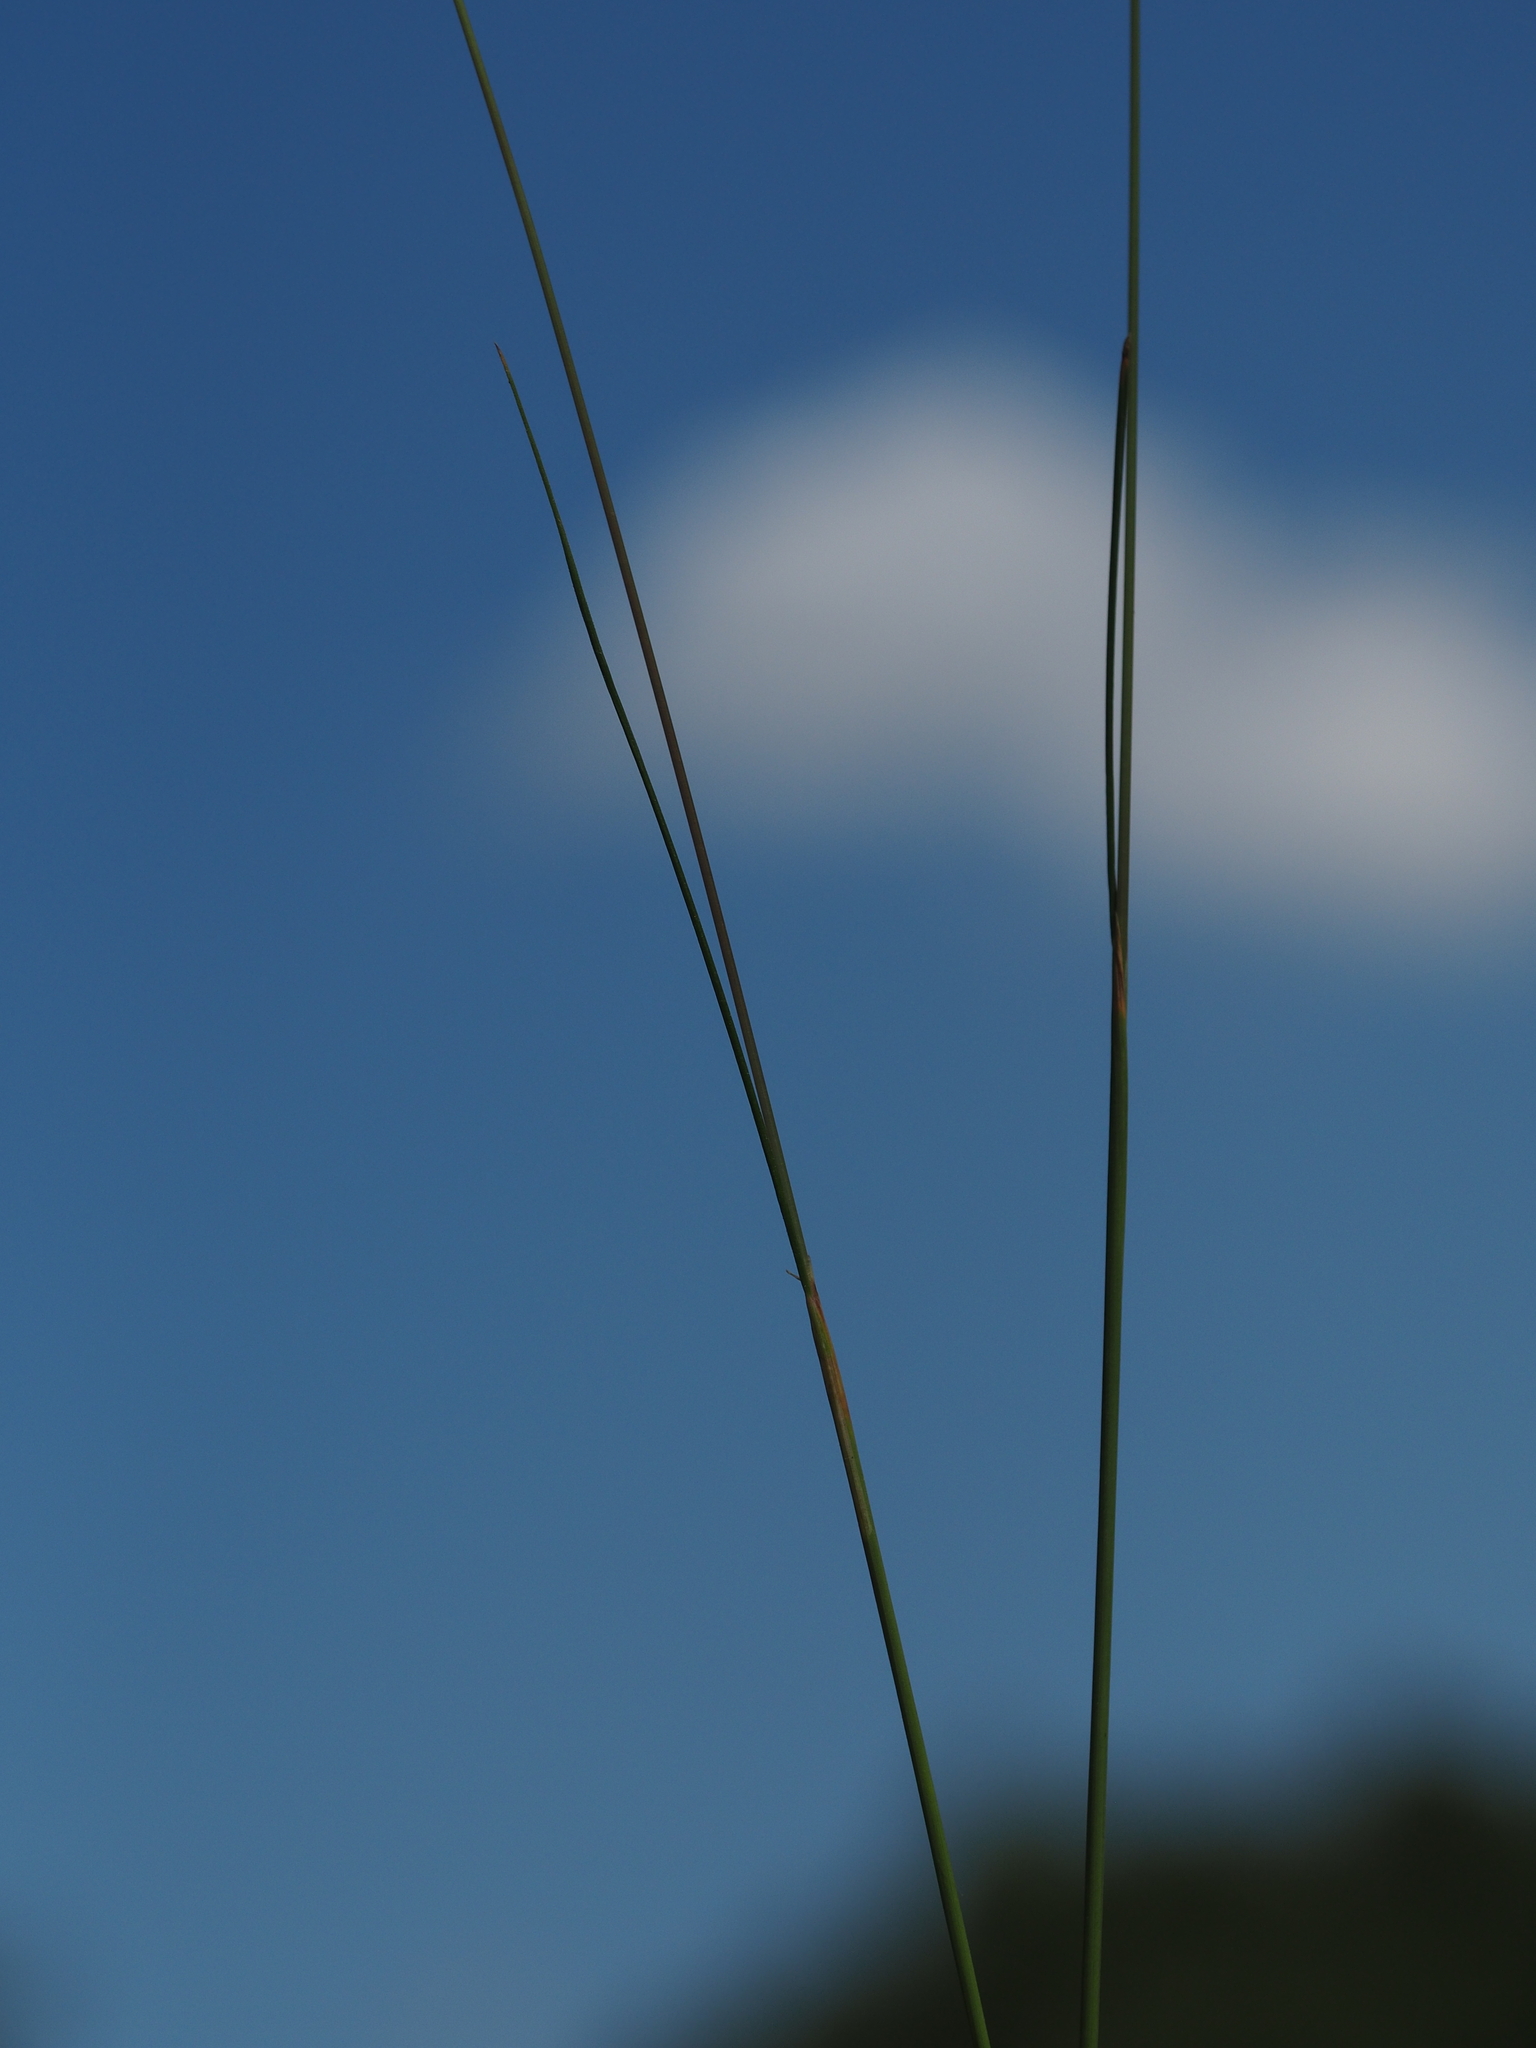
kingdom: Plantae
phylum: Tracheophyta
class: Liliopsida
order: Poales
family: Poaceae
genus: Avenella
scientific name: Avenella flexuosa
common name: Wavy hairgrass
